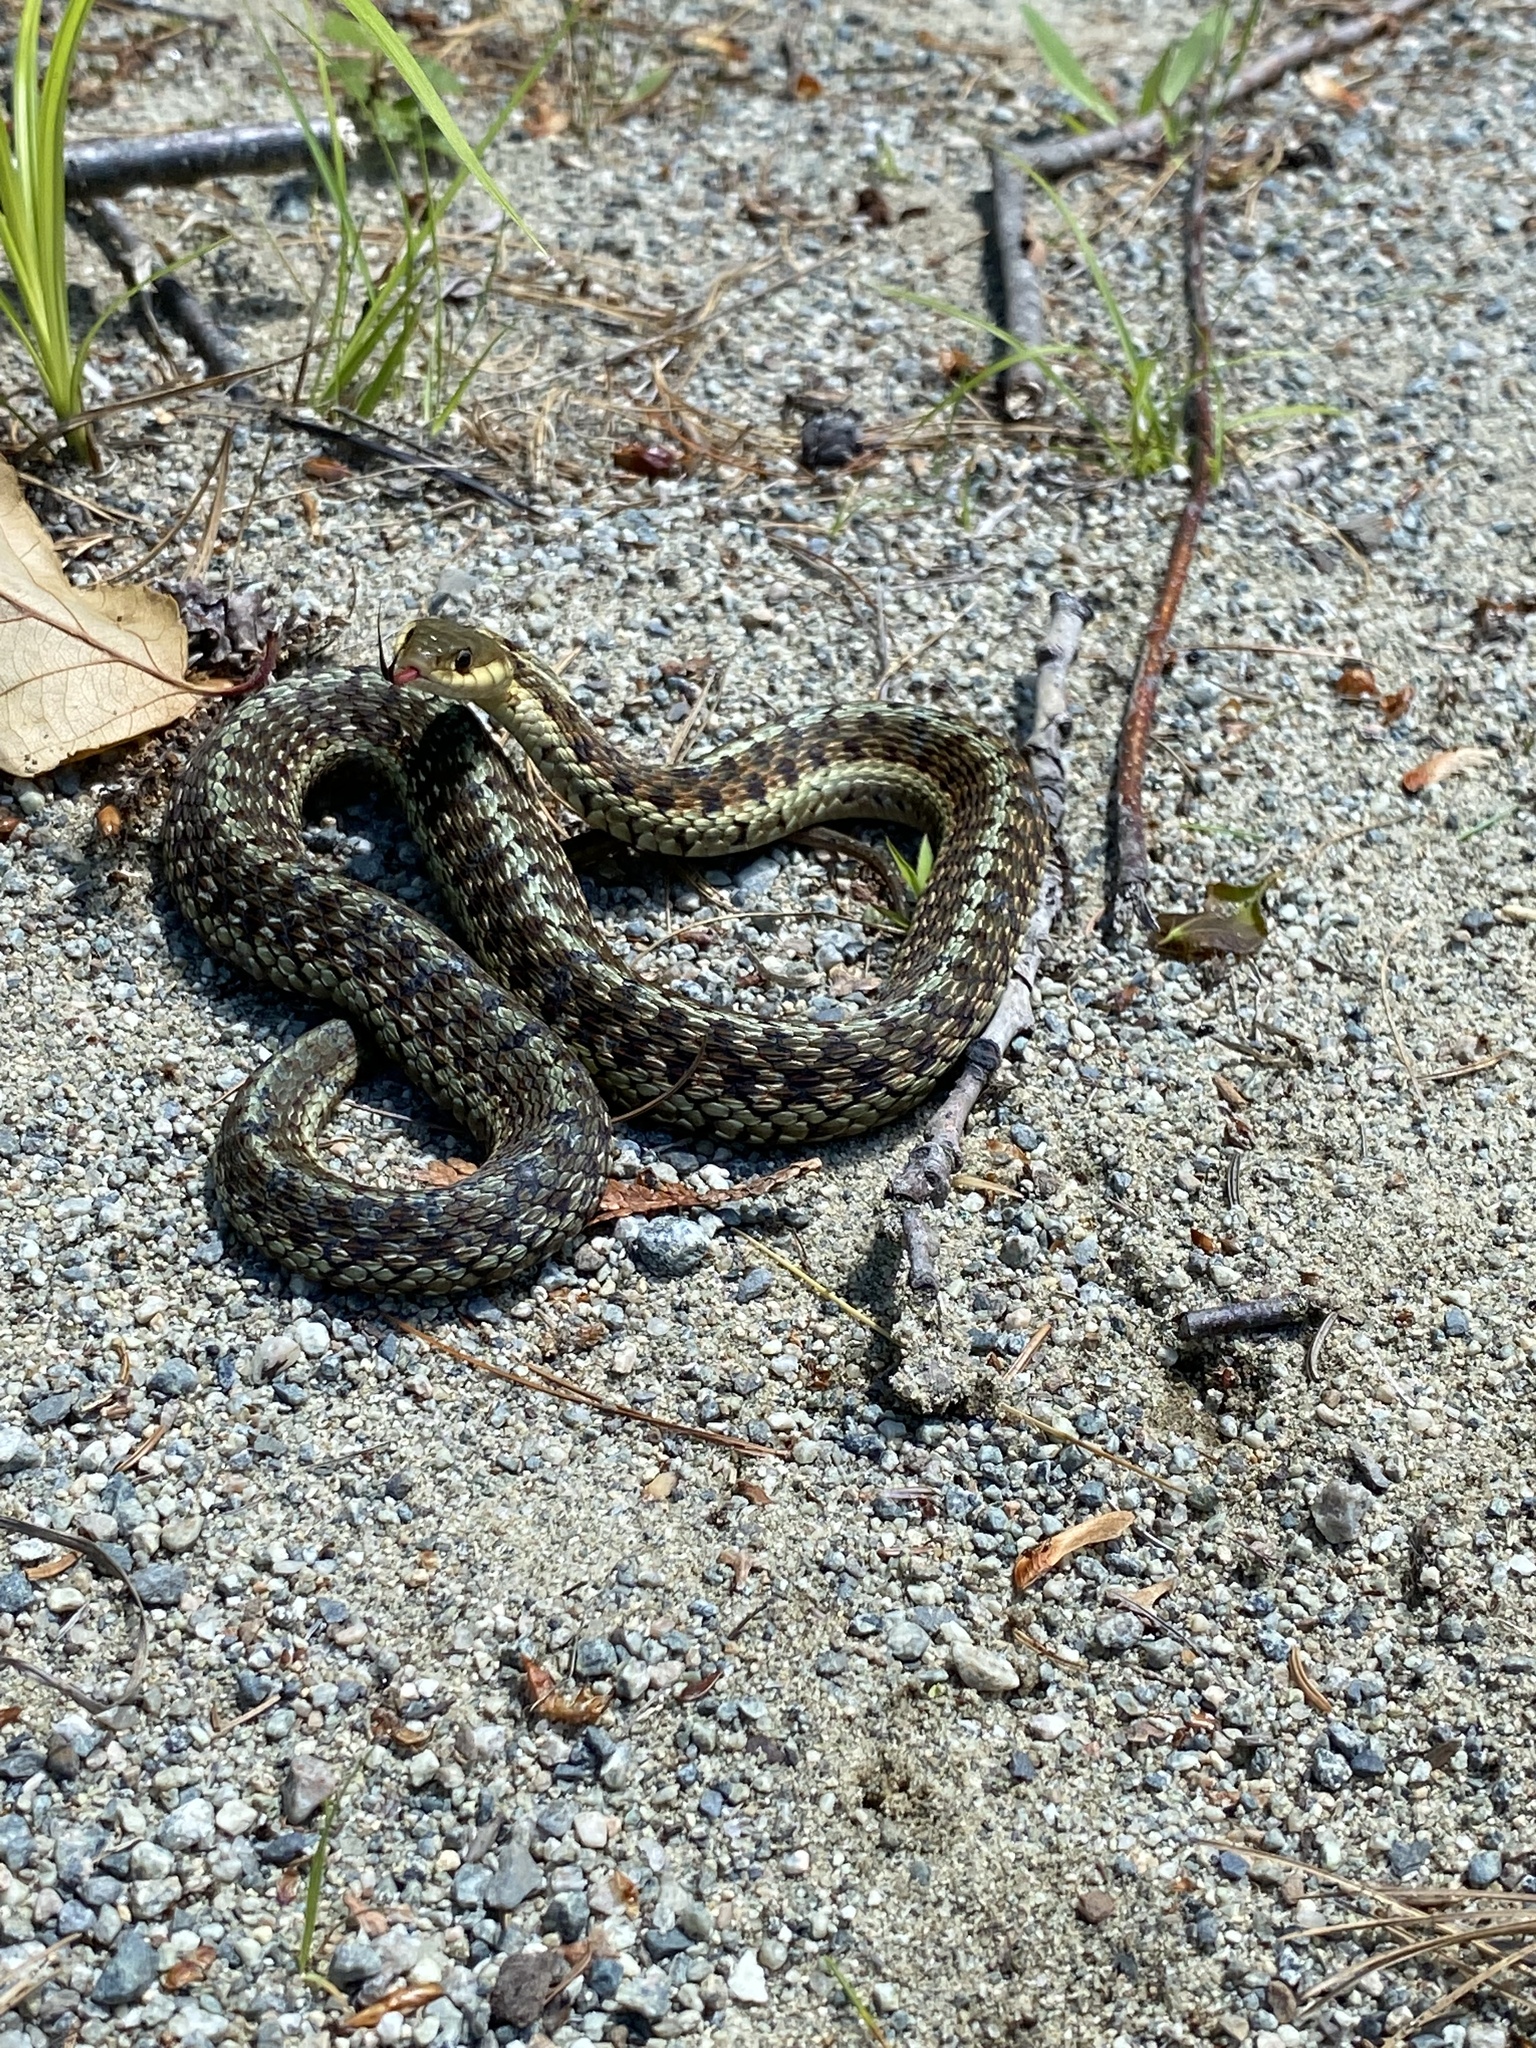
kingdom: Animalia
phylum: Chordata
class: Squamata
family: Colubridae
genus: Thamnophis
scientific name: Thamnophis sirtalis
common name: Common garter snake
